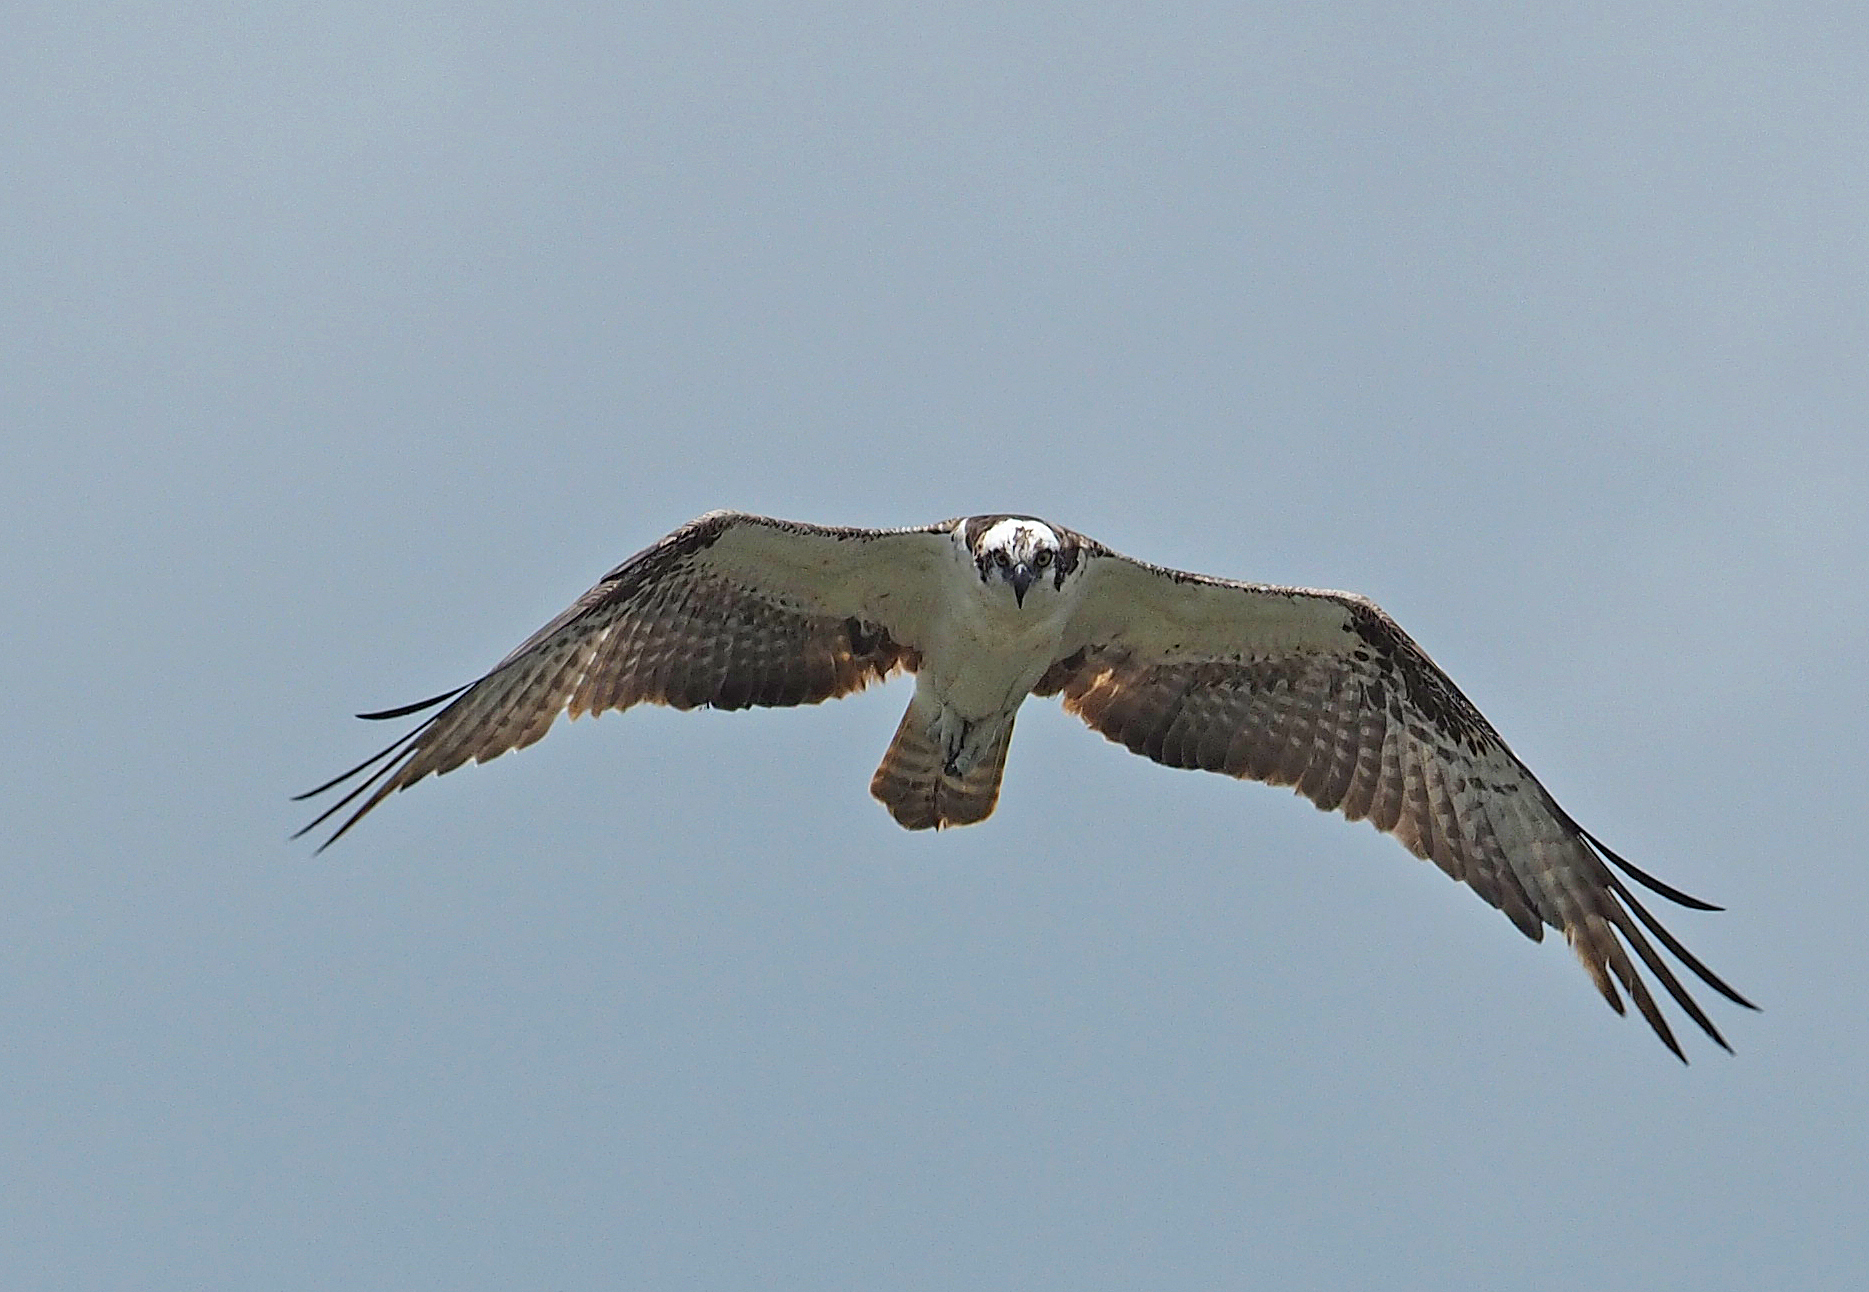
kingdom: Animalia
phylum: Chordata
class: Aves
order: Accipitriformes
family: Pandionidae
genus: Pandion
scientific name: Pandion haliaetus
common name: Osprey
